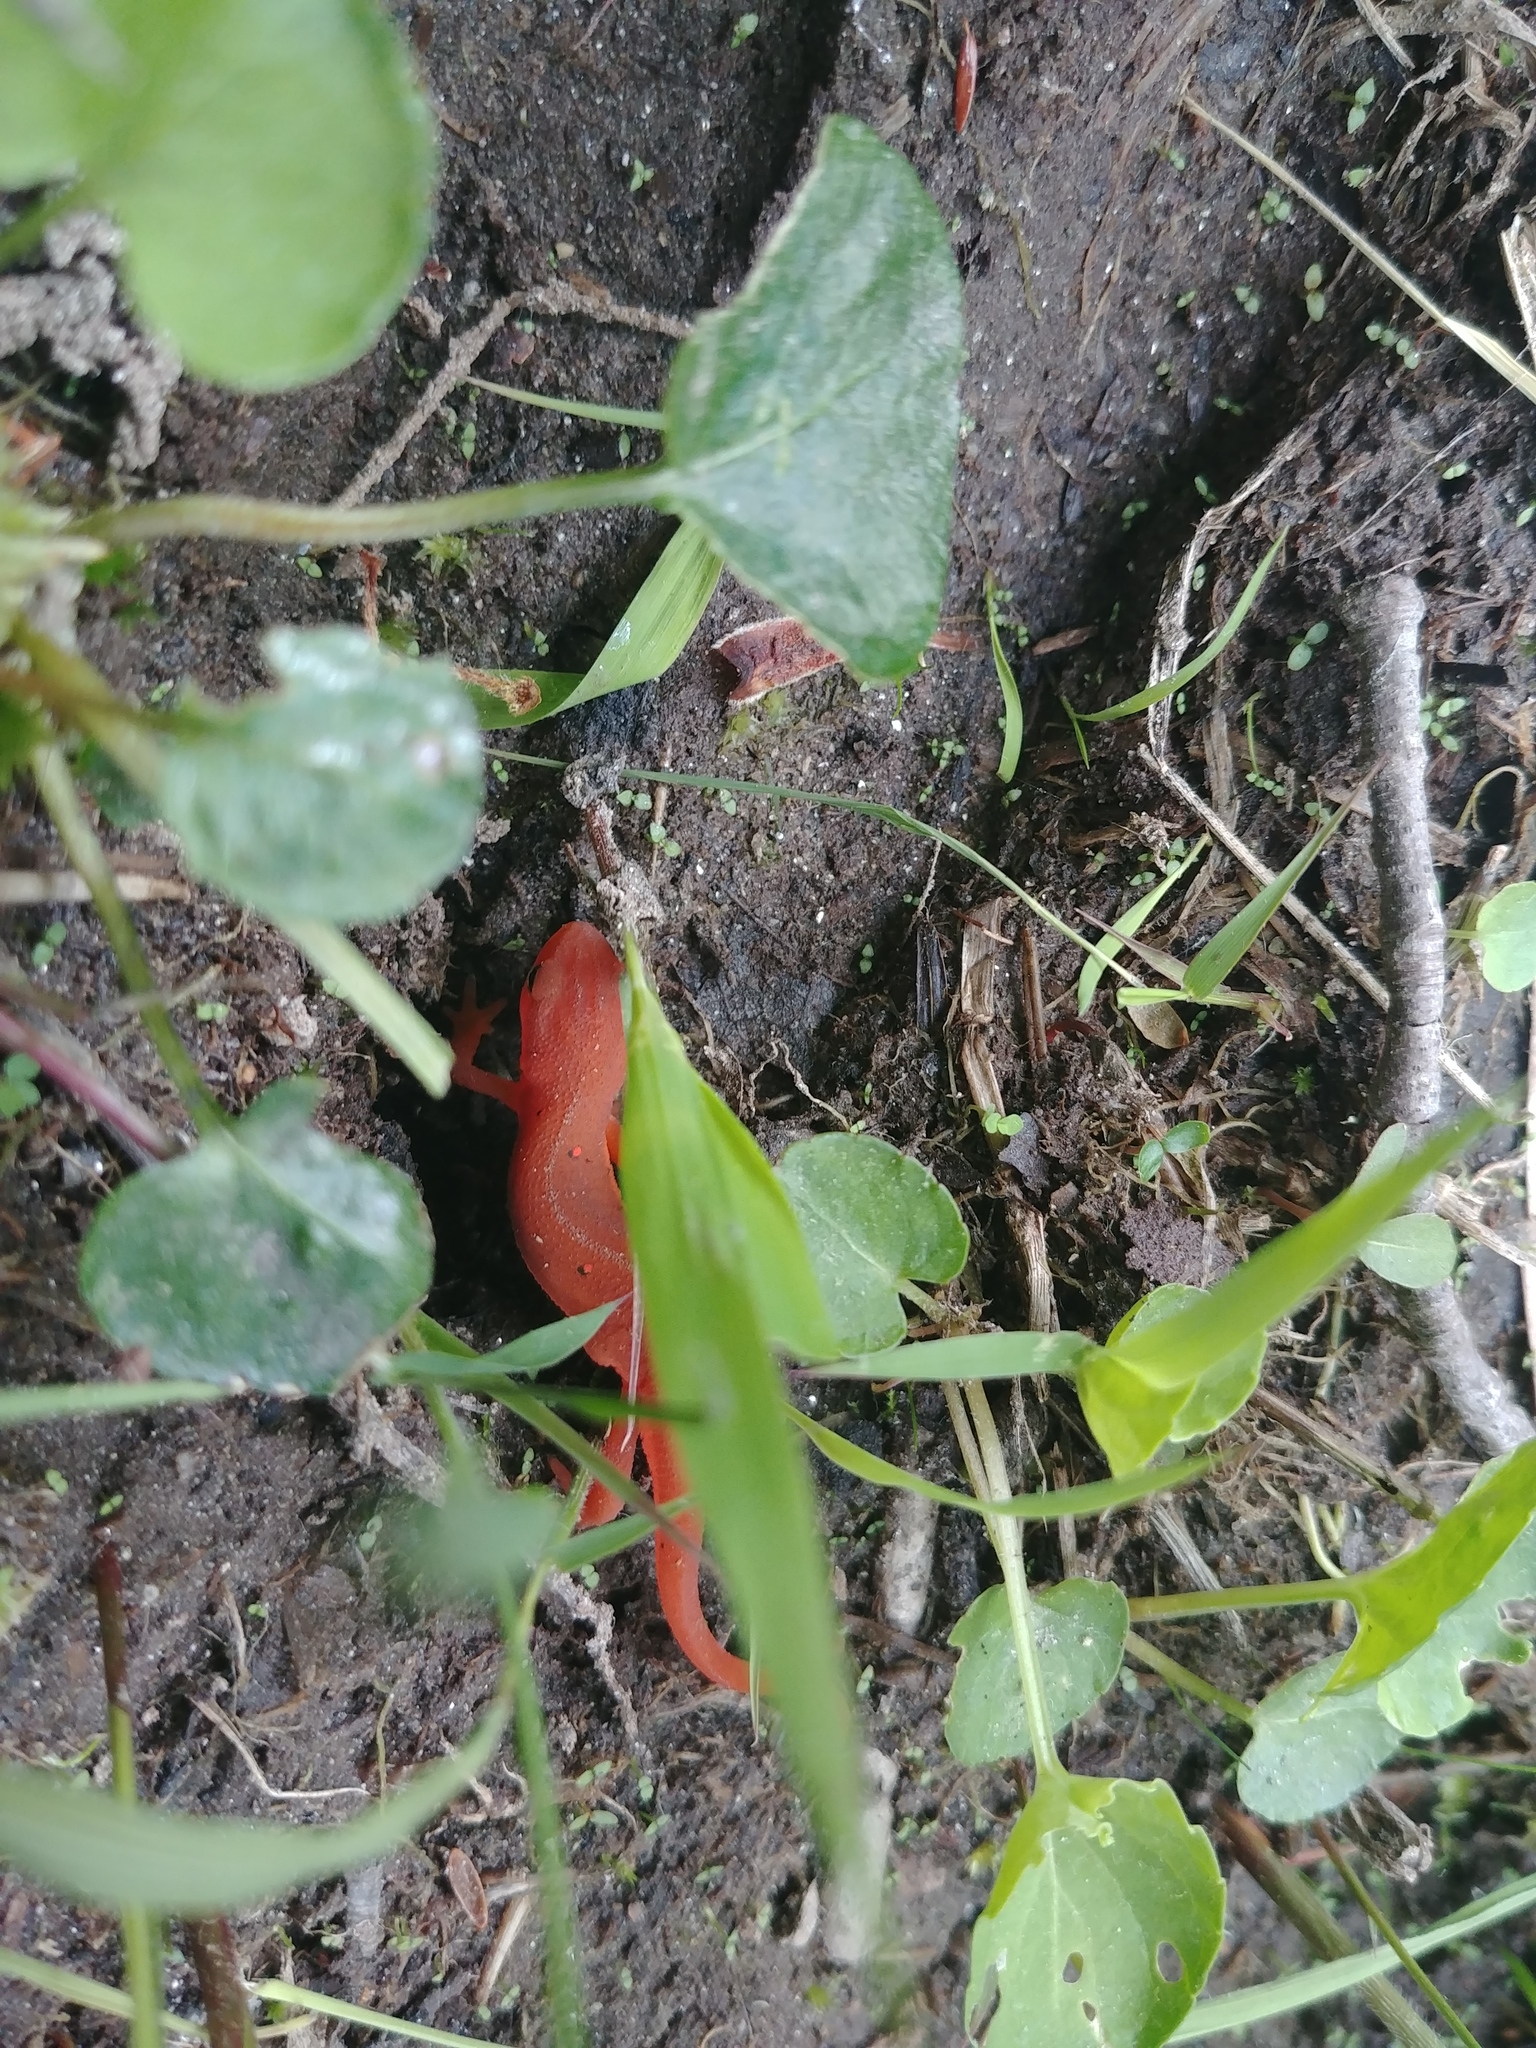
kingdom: Animalia
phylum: Chordata
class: Amphibia
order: Caudata
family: Salamandridae
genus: Notophthalmus
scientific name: Notophthalmus viridescens
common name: Eastern newt
